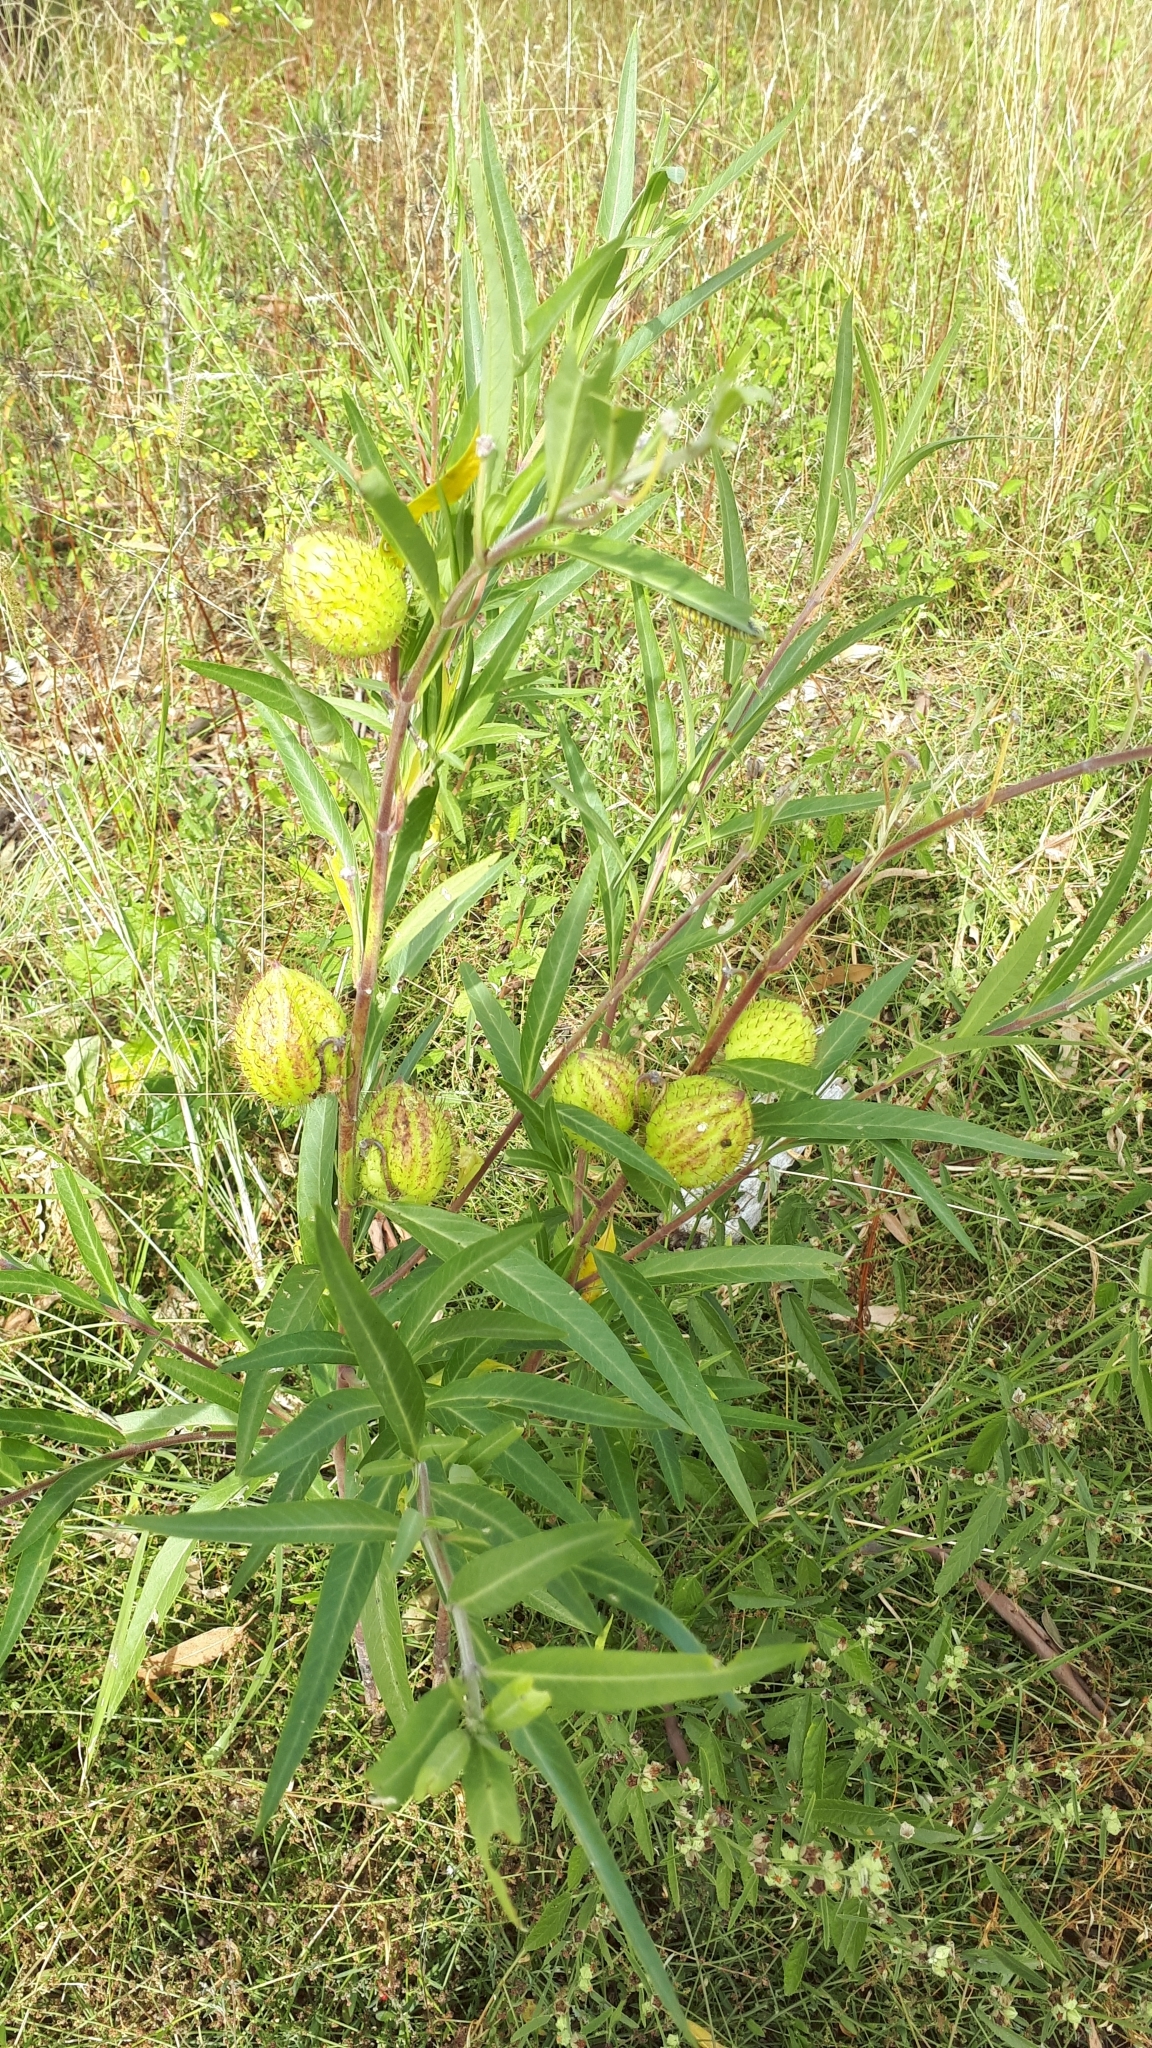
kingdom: Plantae
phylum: Tracheophyta
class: Magnoliopsida
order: Gentianales
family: Apocynaceae
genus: Gomphocarpus
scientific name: Gomphocarpus physocarpus
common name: Balloon cotton bush
